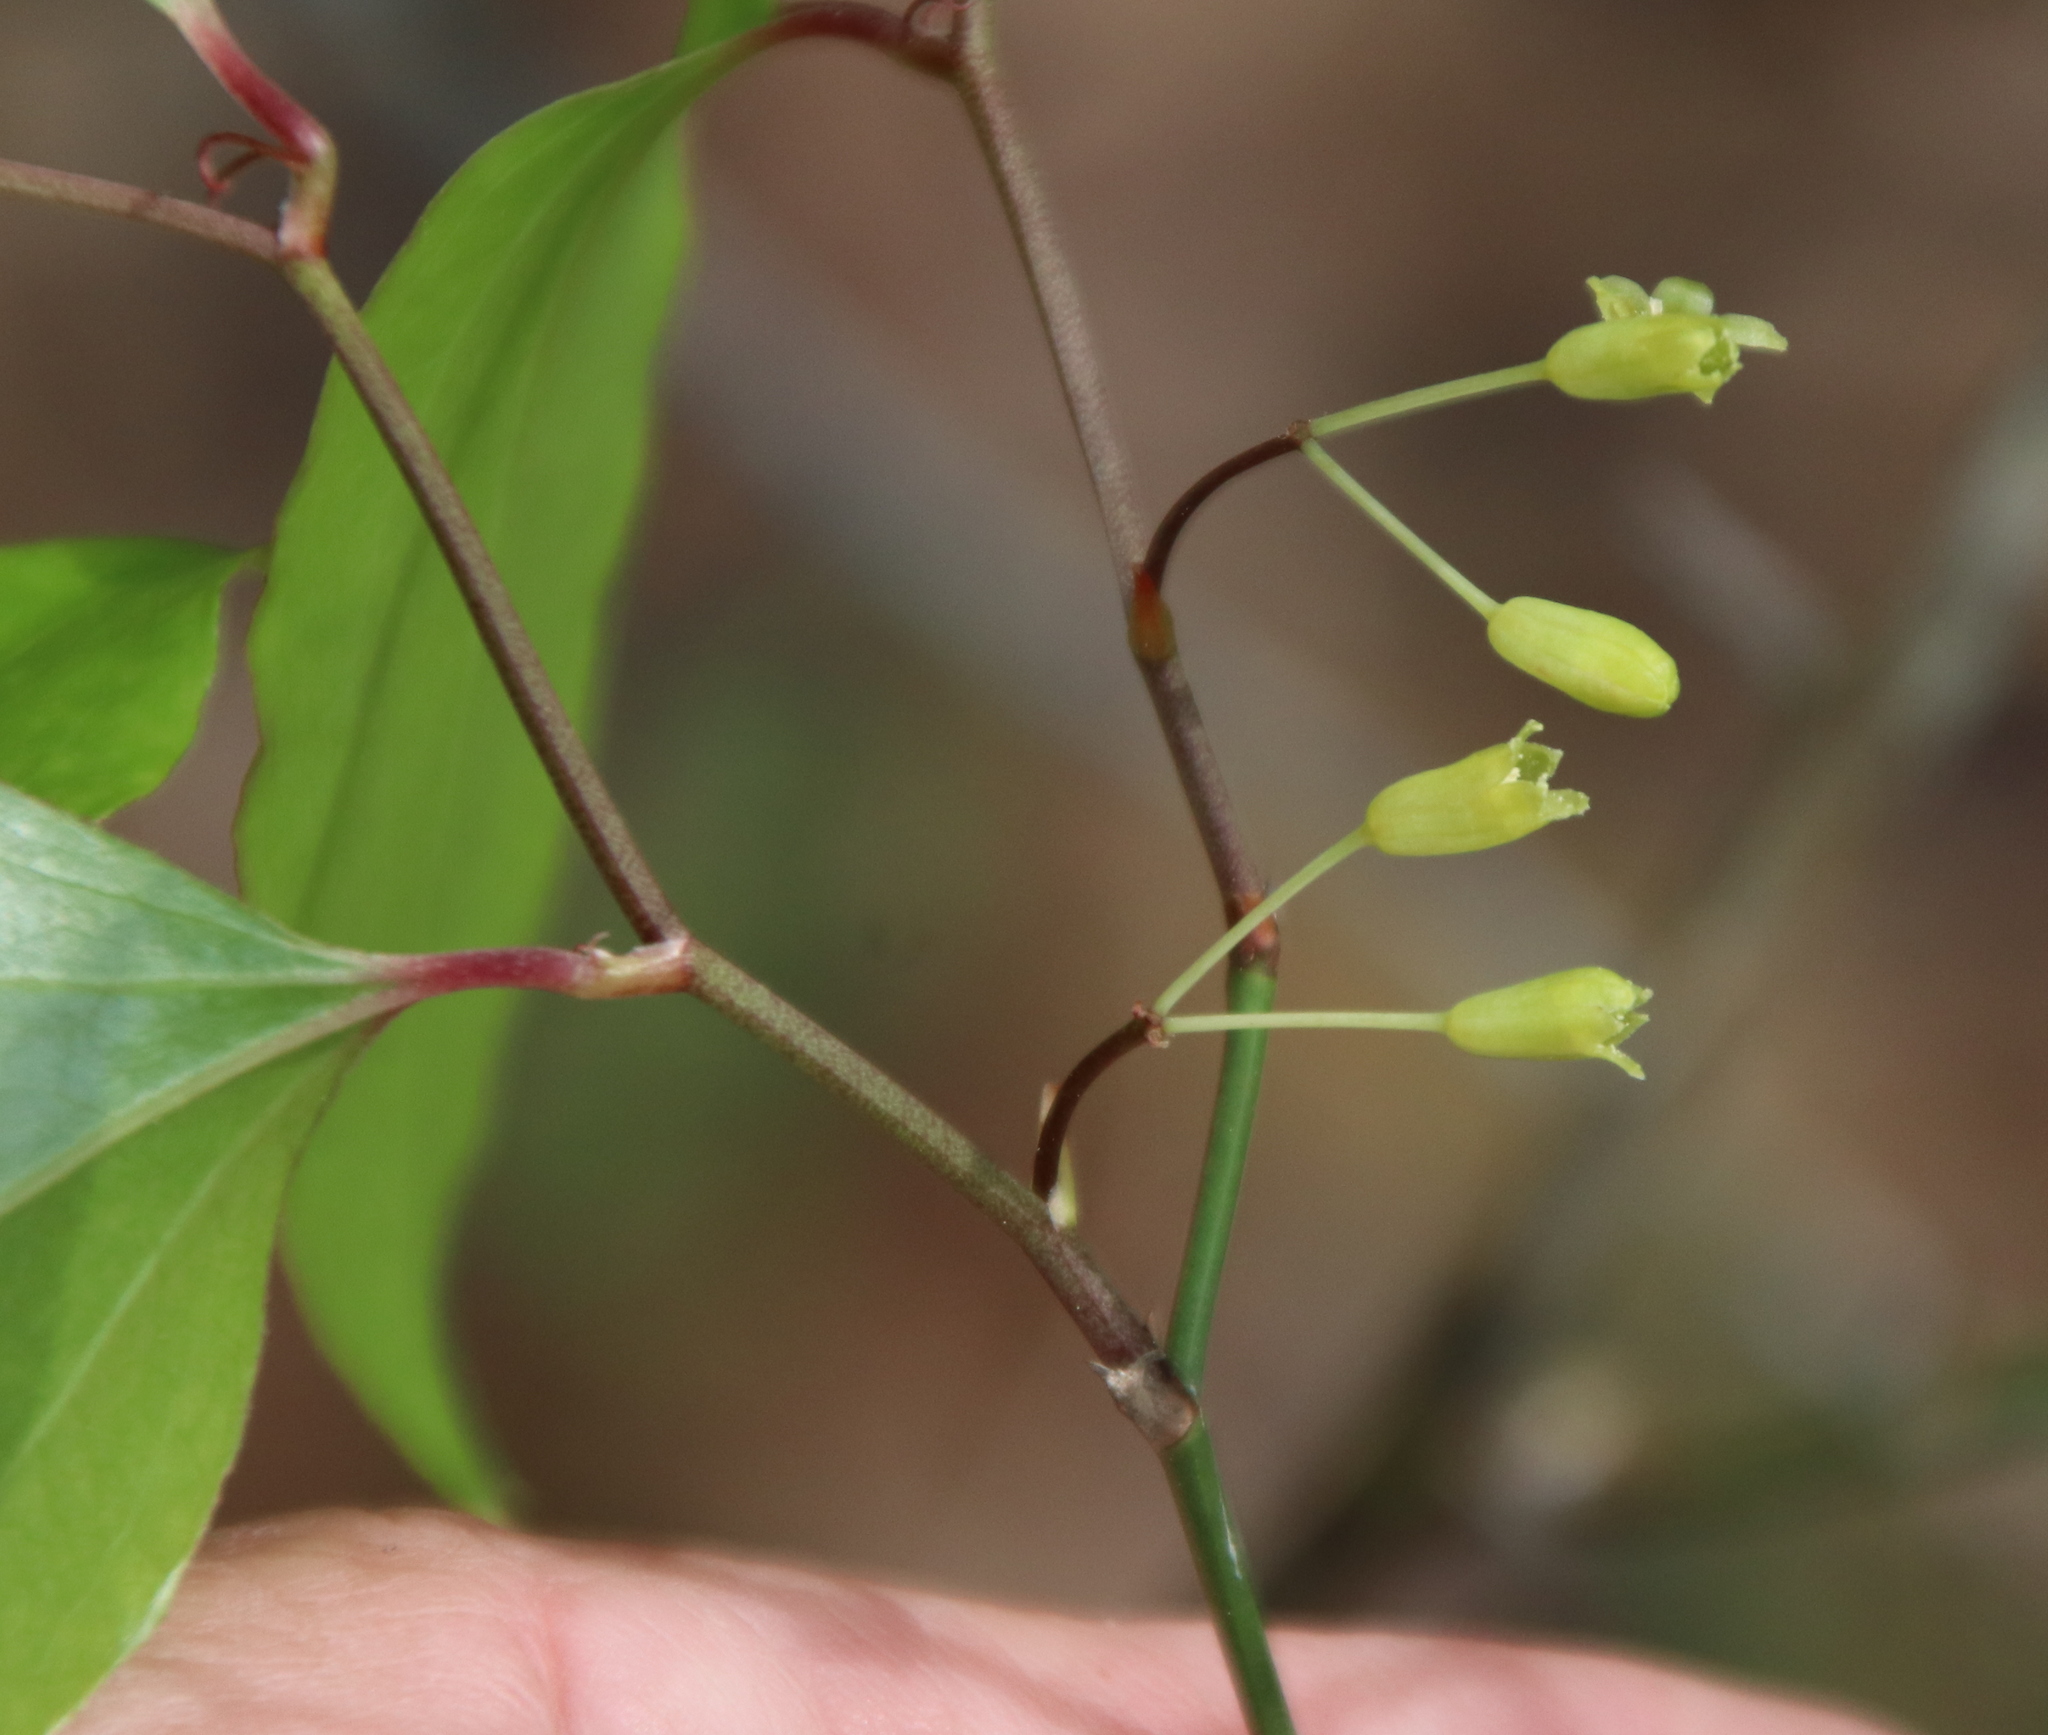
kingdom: Plantae
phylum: Tracheophyta
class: Liliopsida
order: Liliales
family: Smilacaceae
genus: Smilax
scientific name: Smilax rotundifolia
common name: Bullbriar
